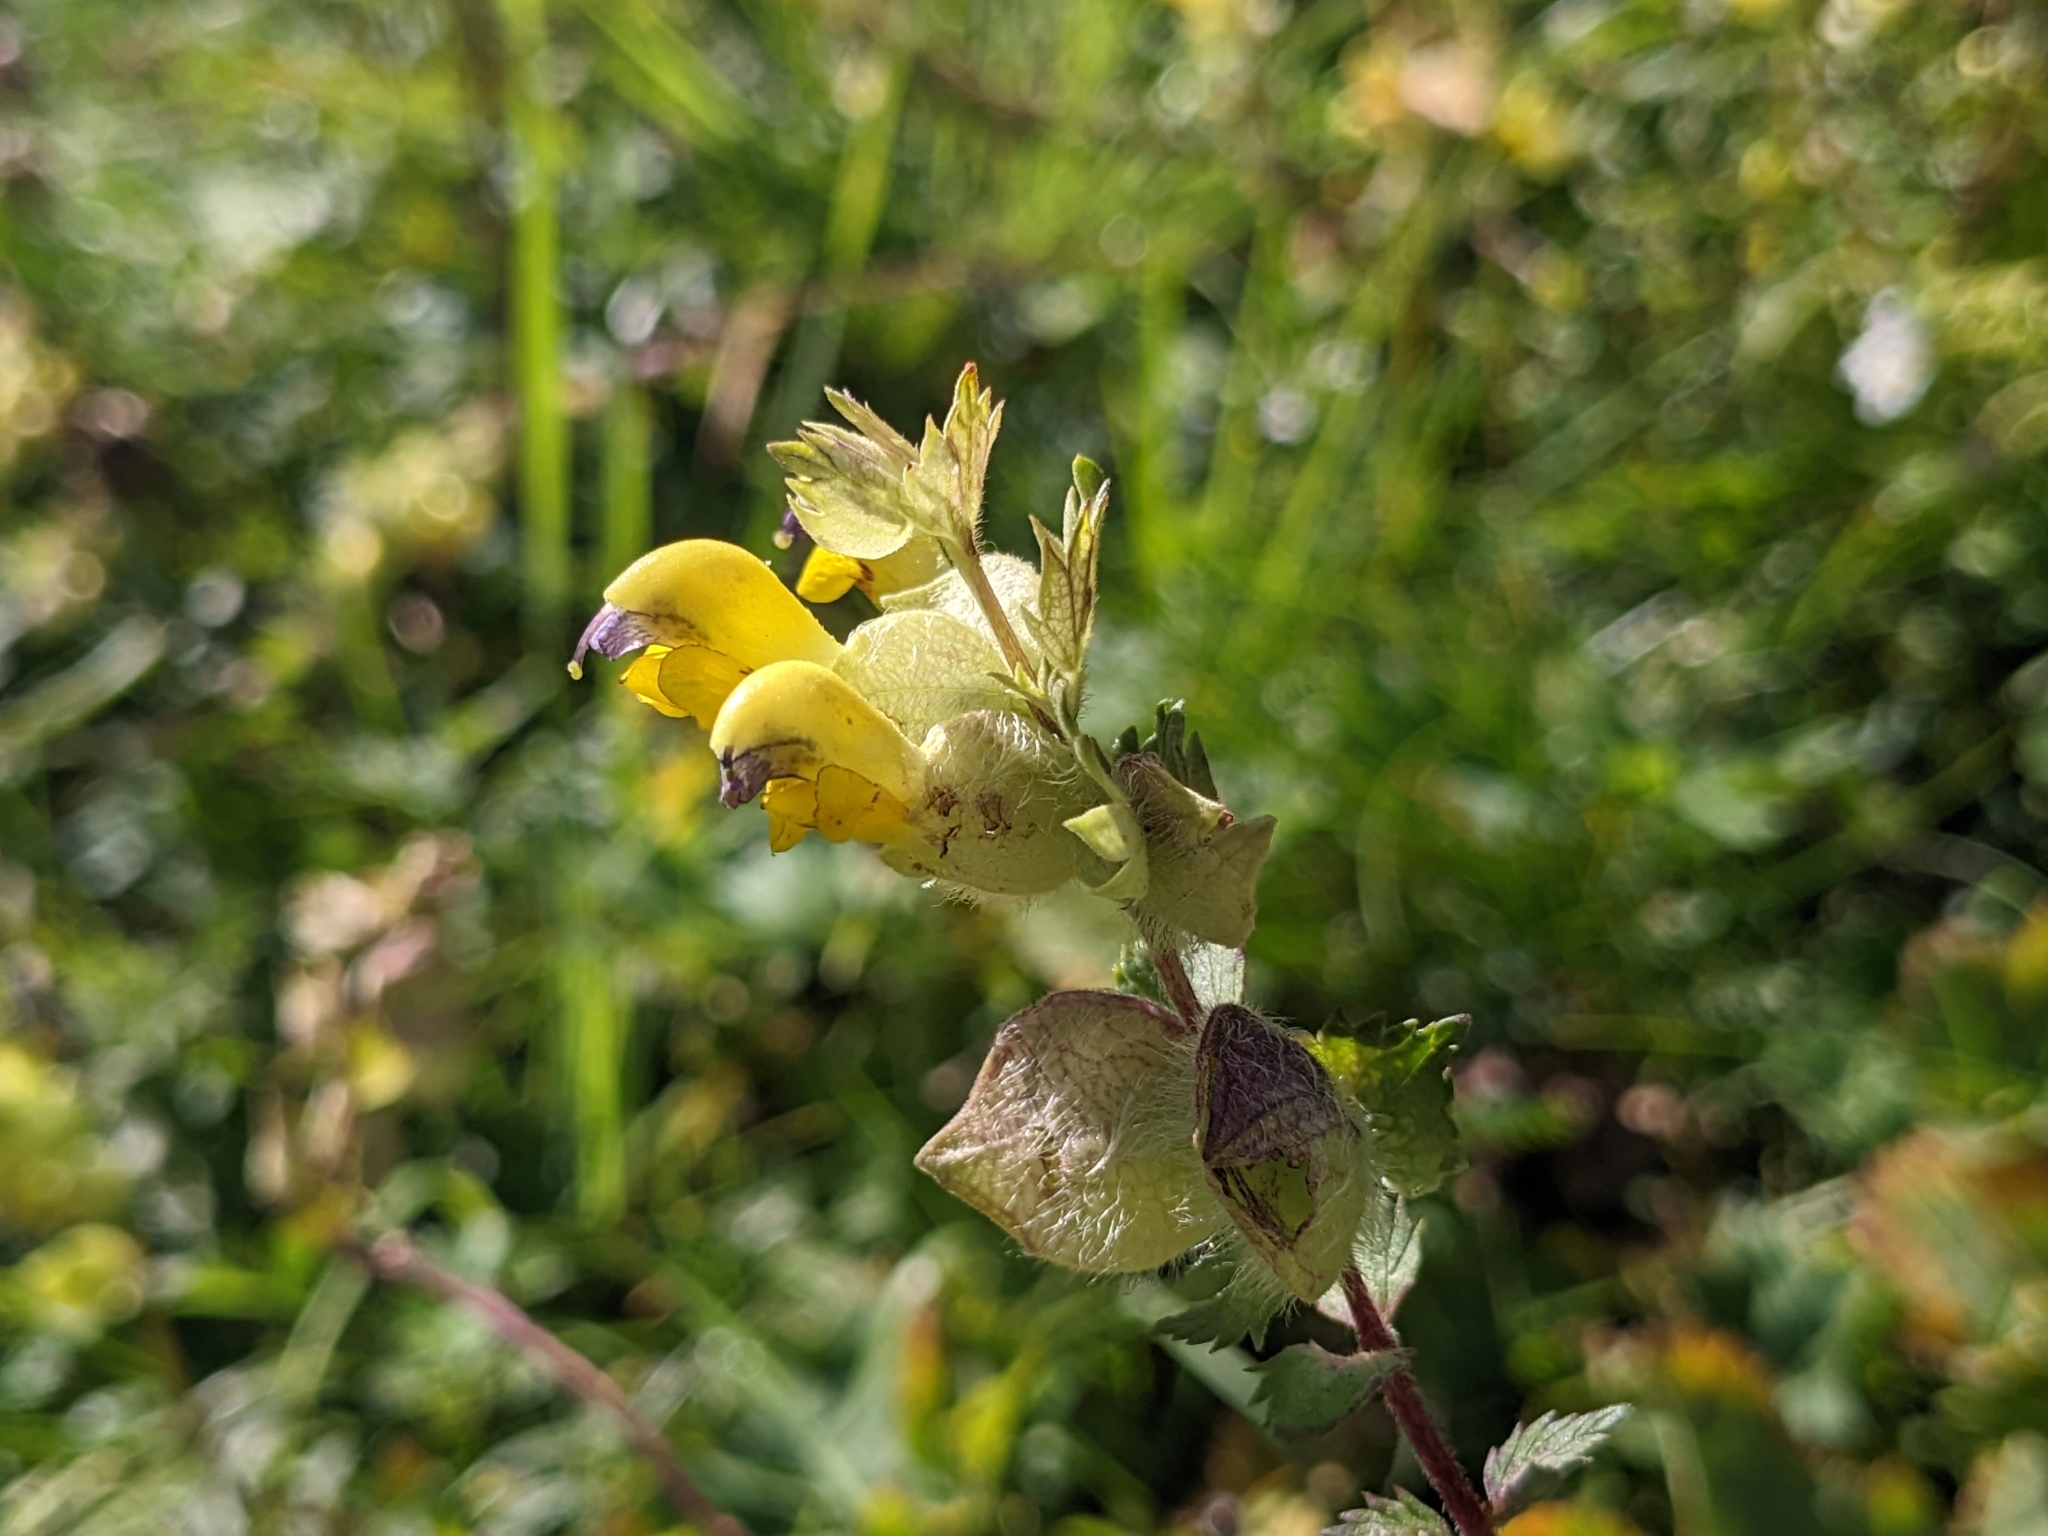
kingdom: Plantae
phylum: Tracheophyta
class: Magnoliopsida
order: Lamiales
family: Orobanchaceae
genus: Rhinanthus
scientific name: Rhinanthus alectorolophus
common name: Greater yellow-rattle
